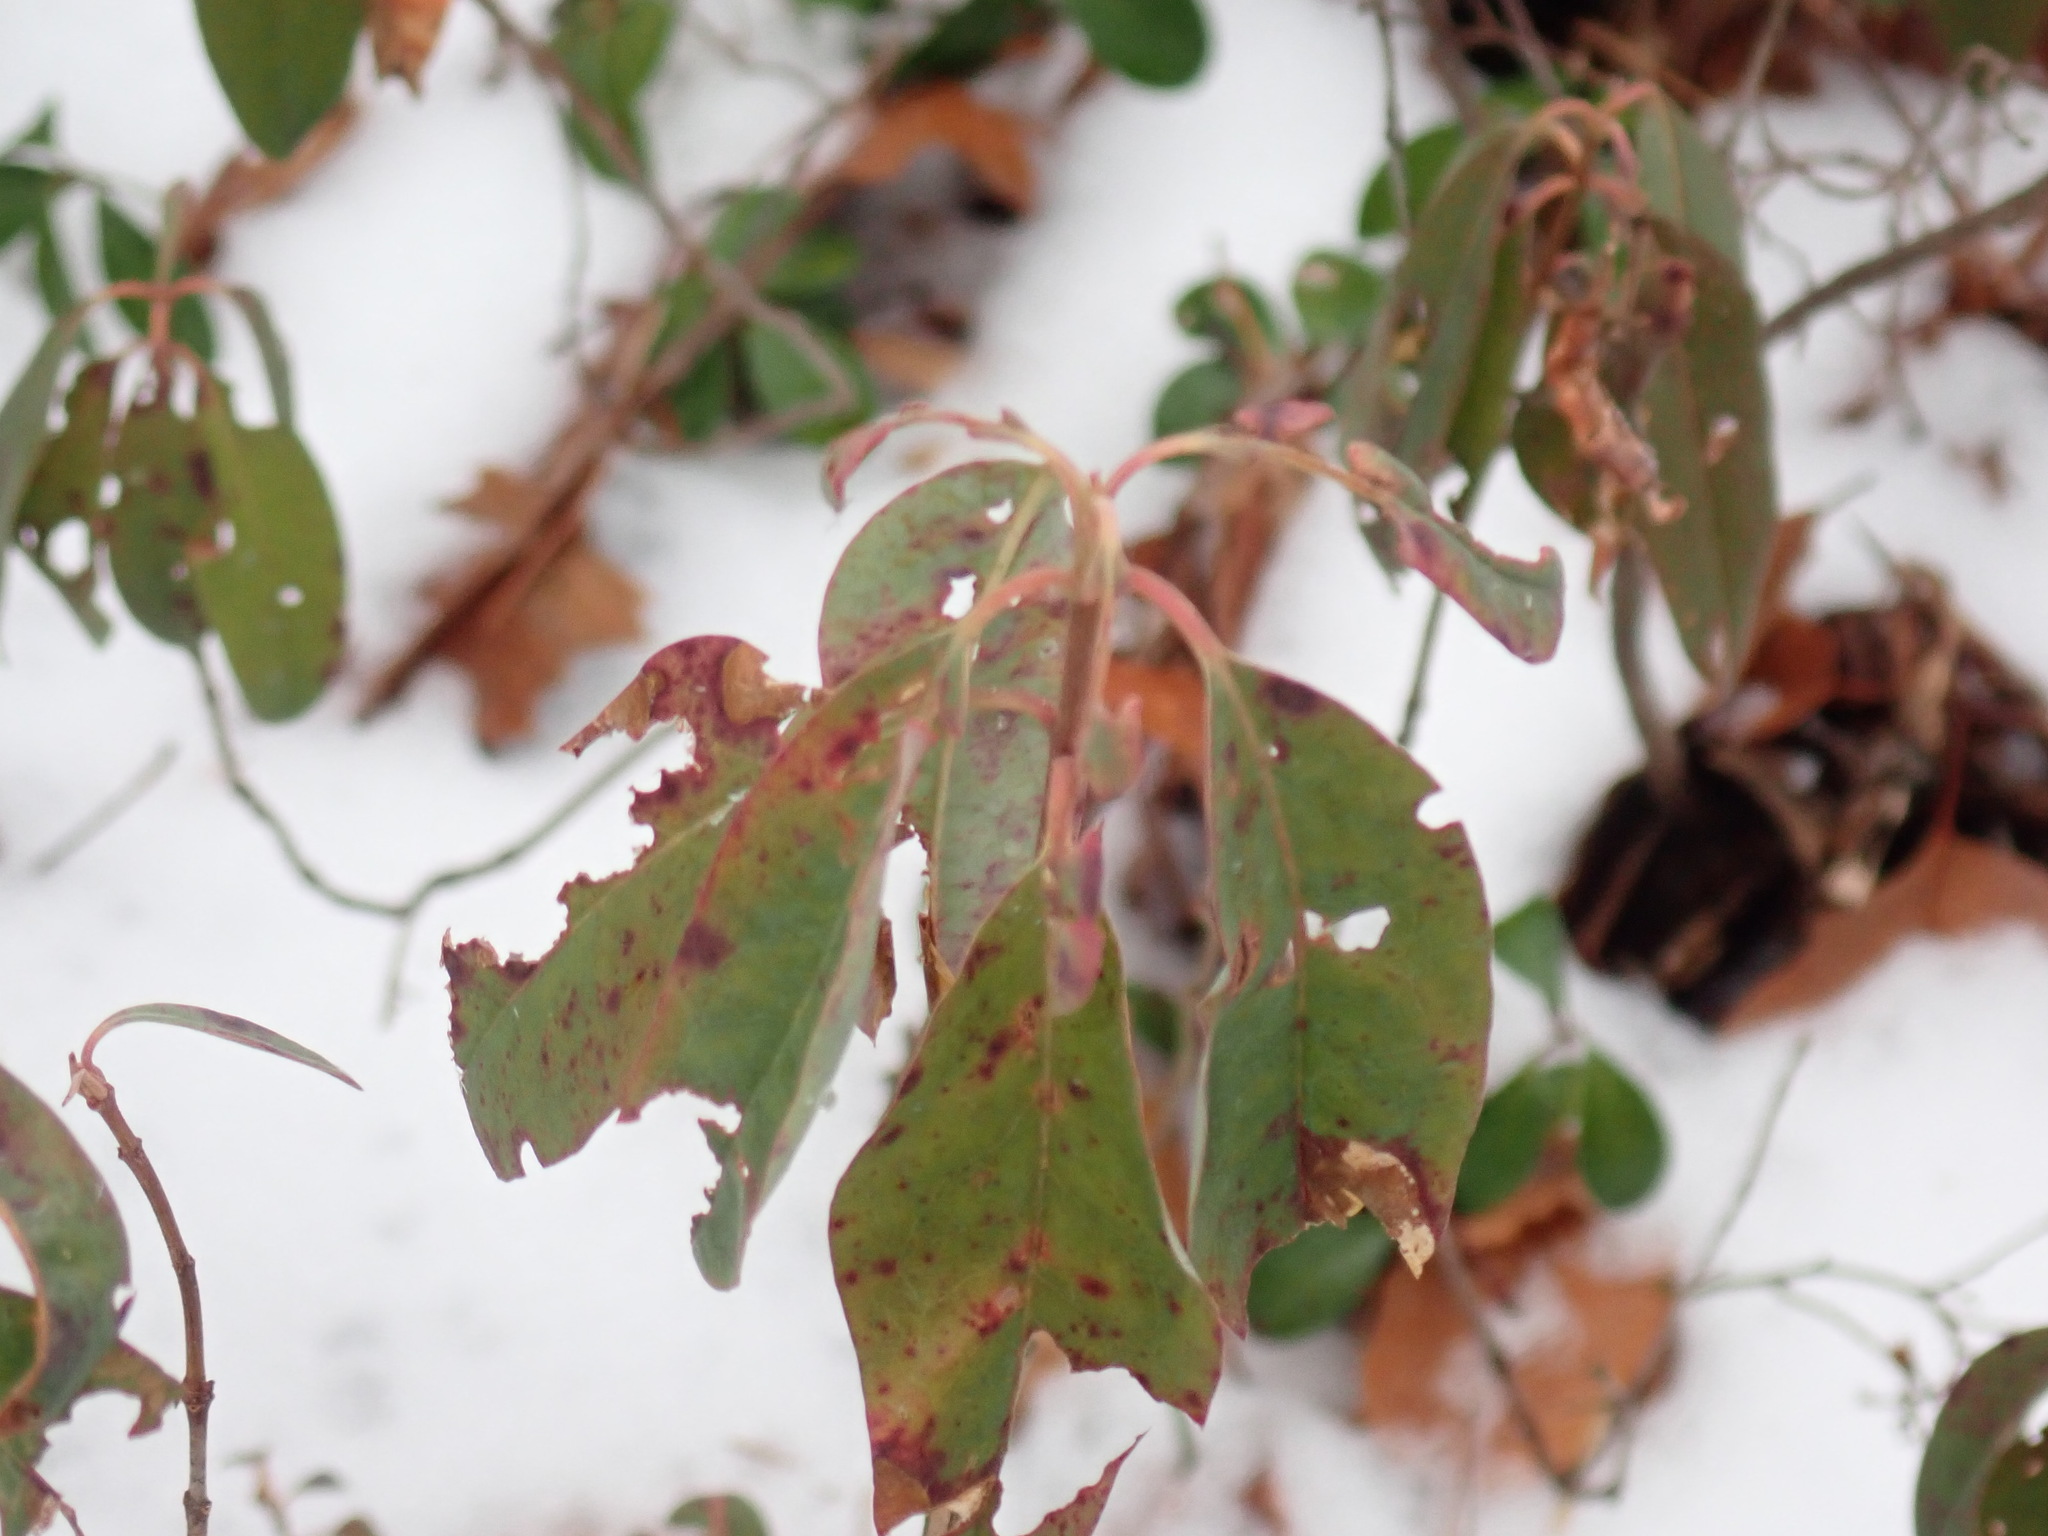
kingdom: Plantae
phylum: Tracheophyta
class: Magnoliopsida
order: Ericales
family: Ericaceae
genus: Kalmia
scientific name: Kalmia angustifolia
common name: Sheep-laurel
